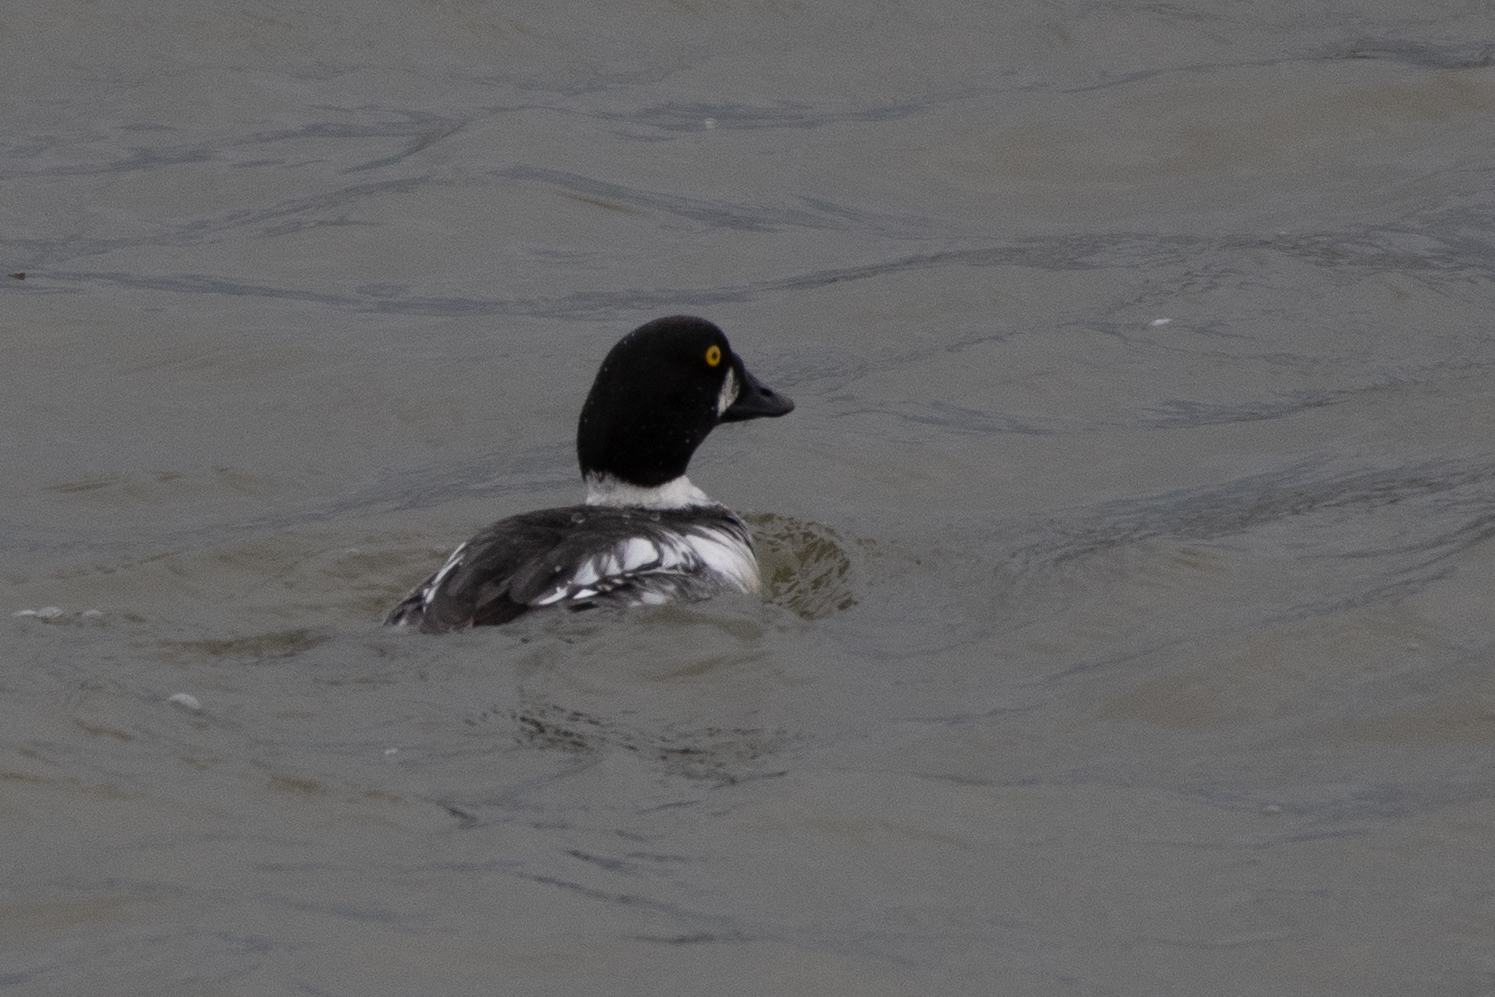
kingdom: Animalia
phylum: Chordata
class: Aves
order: Anseriformes
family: Anatidae
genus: Bucephala
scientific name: Bucephala clangula
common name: Common goldeneye
